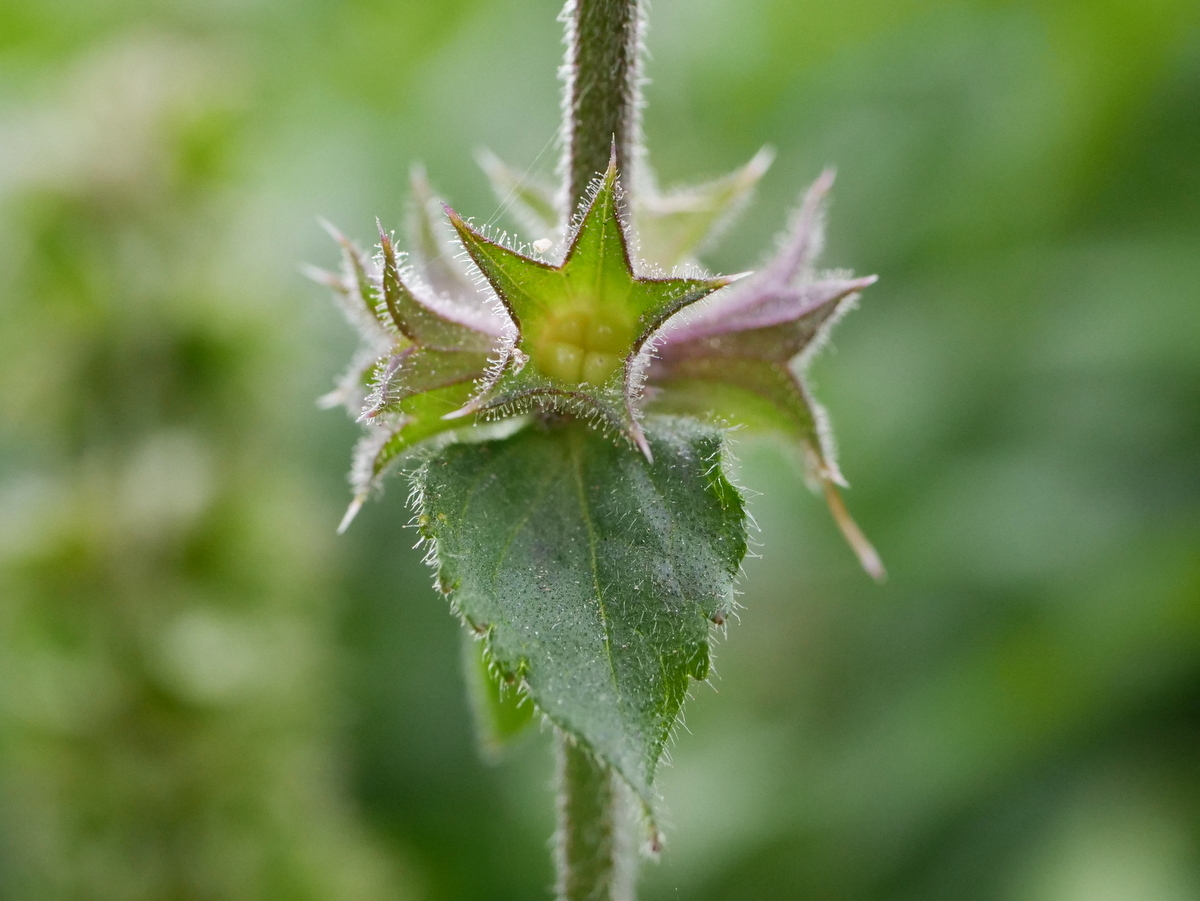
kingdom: Plantae
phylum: Tracheophyta
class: Magnoliopsida
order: Lamiales
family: Lamiaceae
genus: Stachys
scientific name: Stachys palustris
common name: Marsh woundwort
